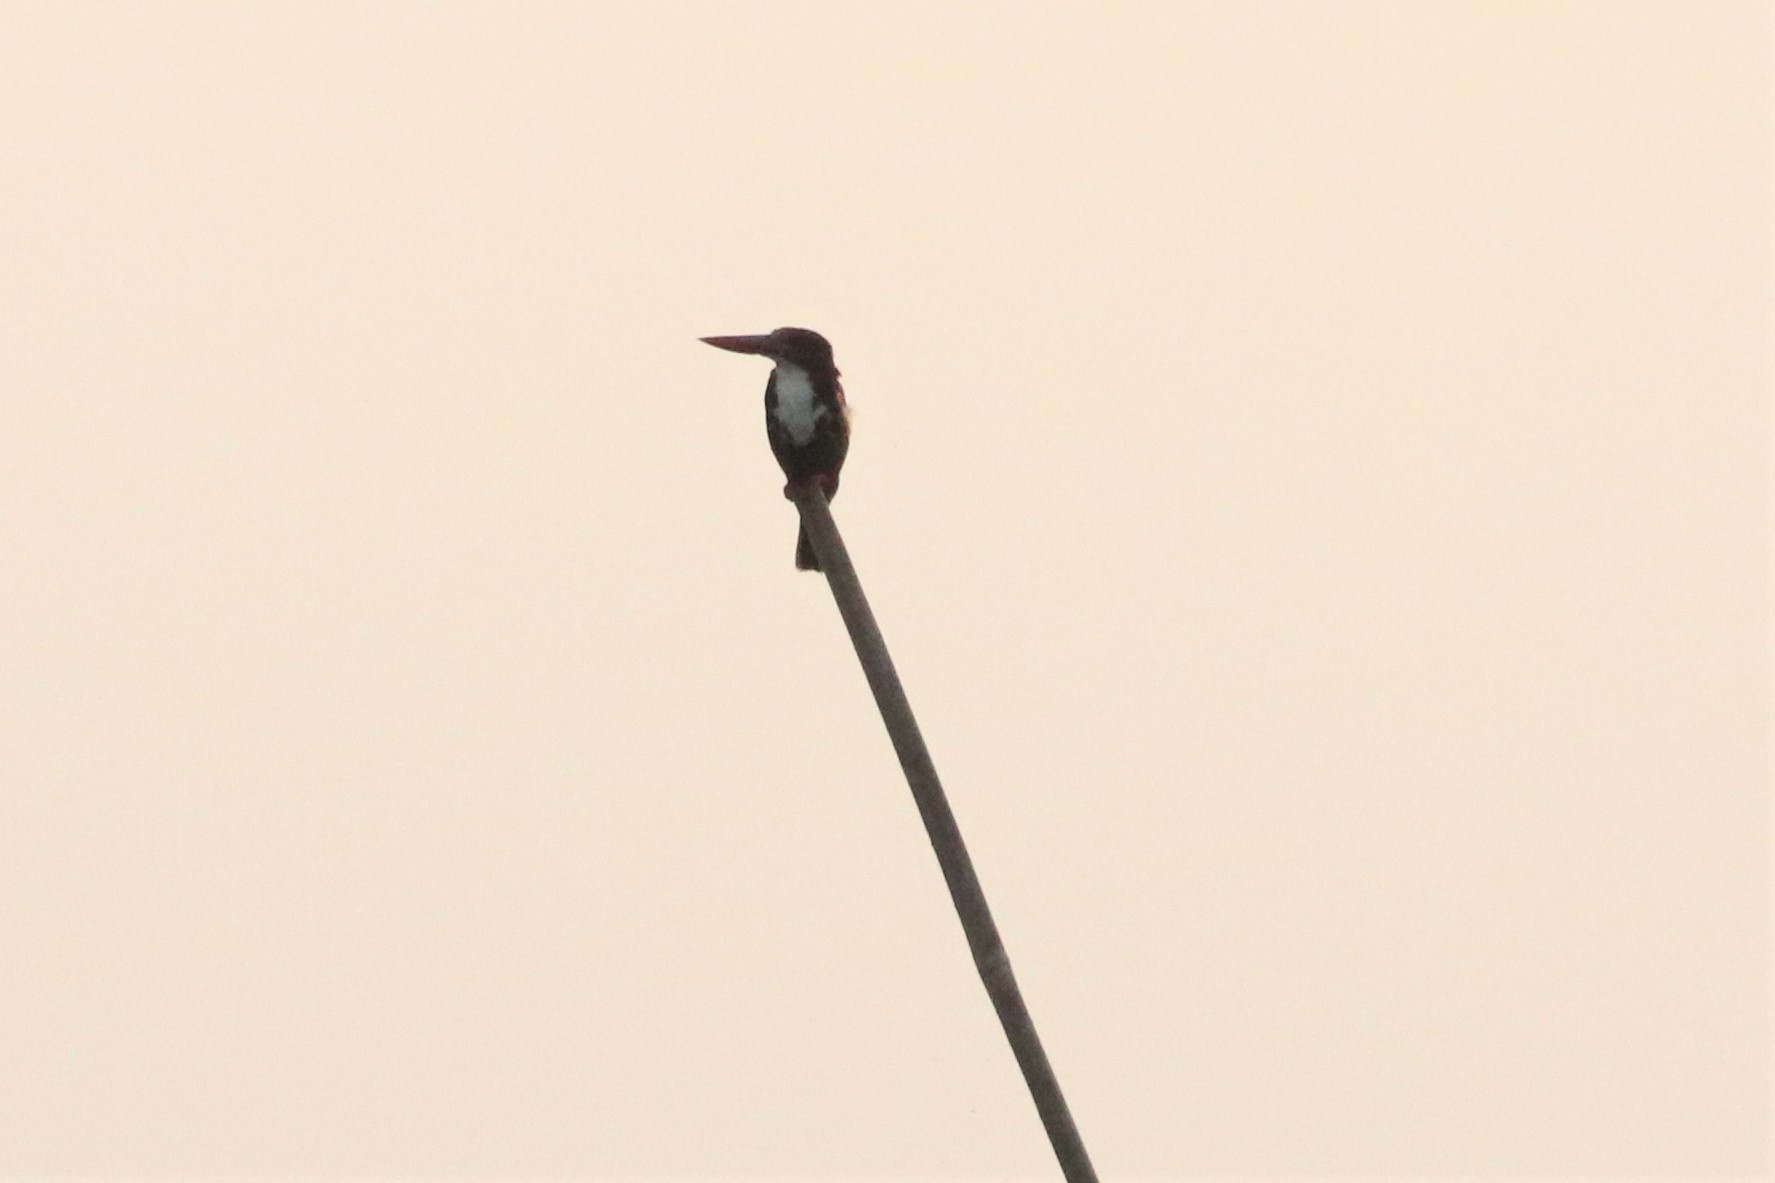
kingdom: Animalia
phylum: Chordata
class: Aves
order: Coraciiformes
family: Alcedinidae
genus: Halcyon
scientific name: Halcyon smyrnensis
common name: White-throated kingfisher
